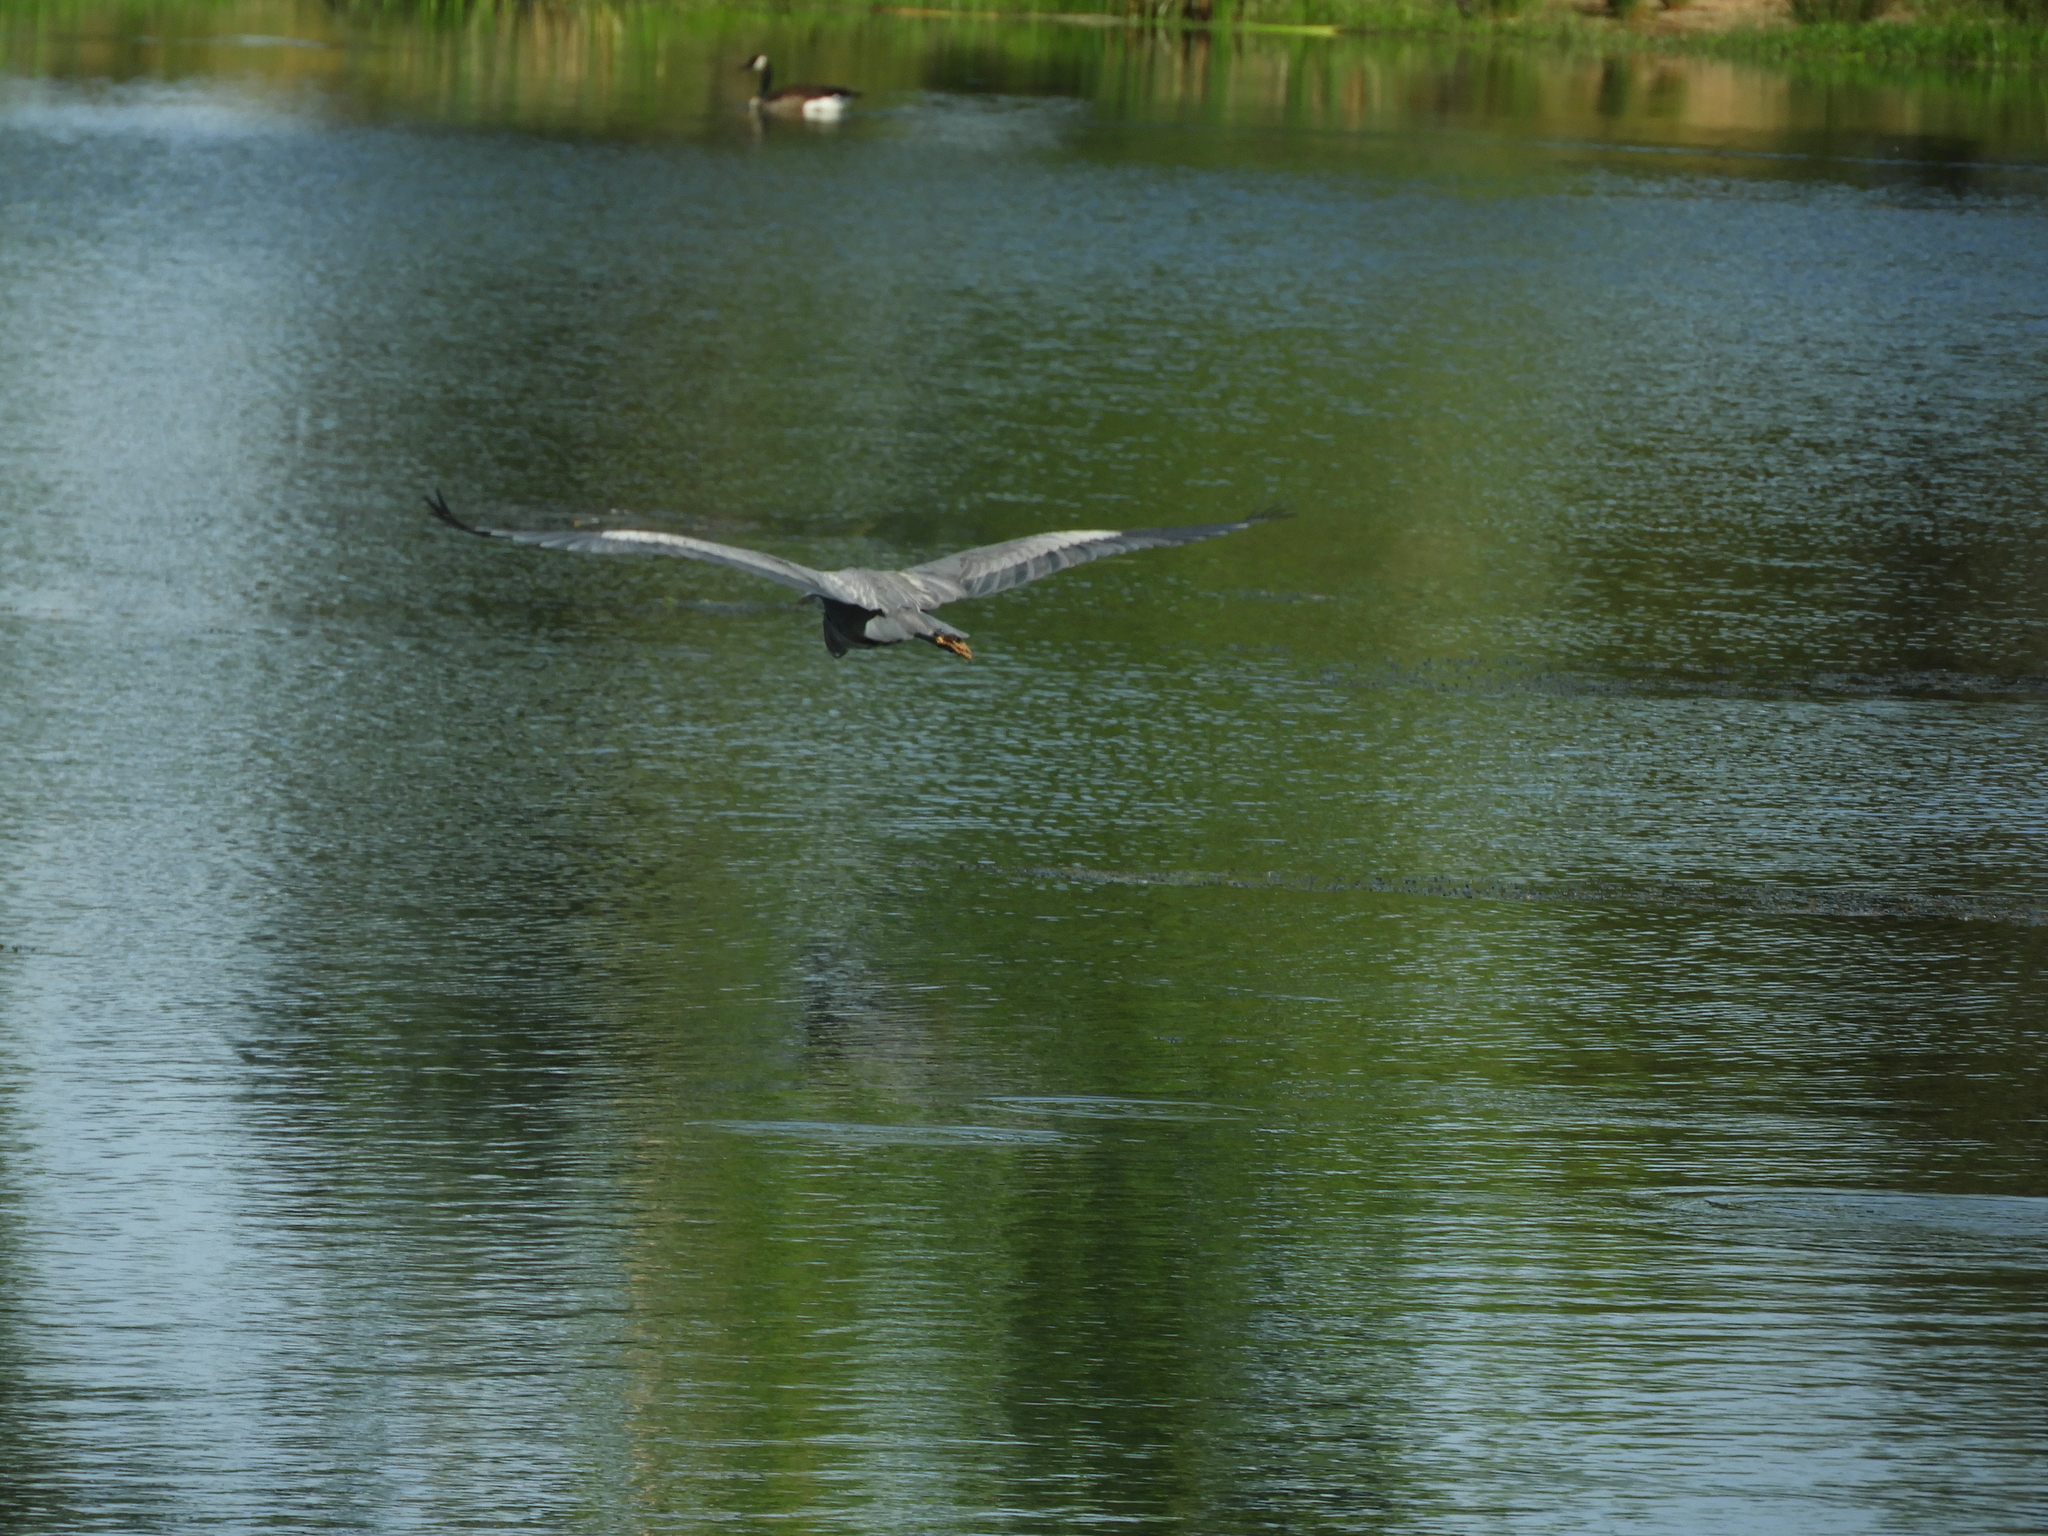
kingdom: Animalia
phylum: Chordata
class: Aves
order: Pelecaniformes
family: Ardeidae
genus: Ardea
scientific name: Ardea herodias
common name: Great blue heron
